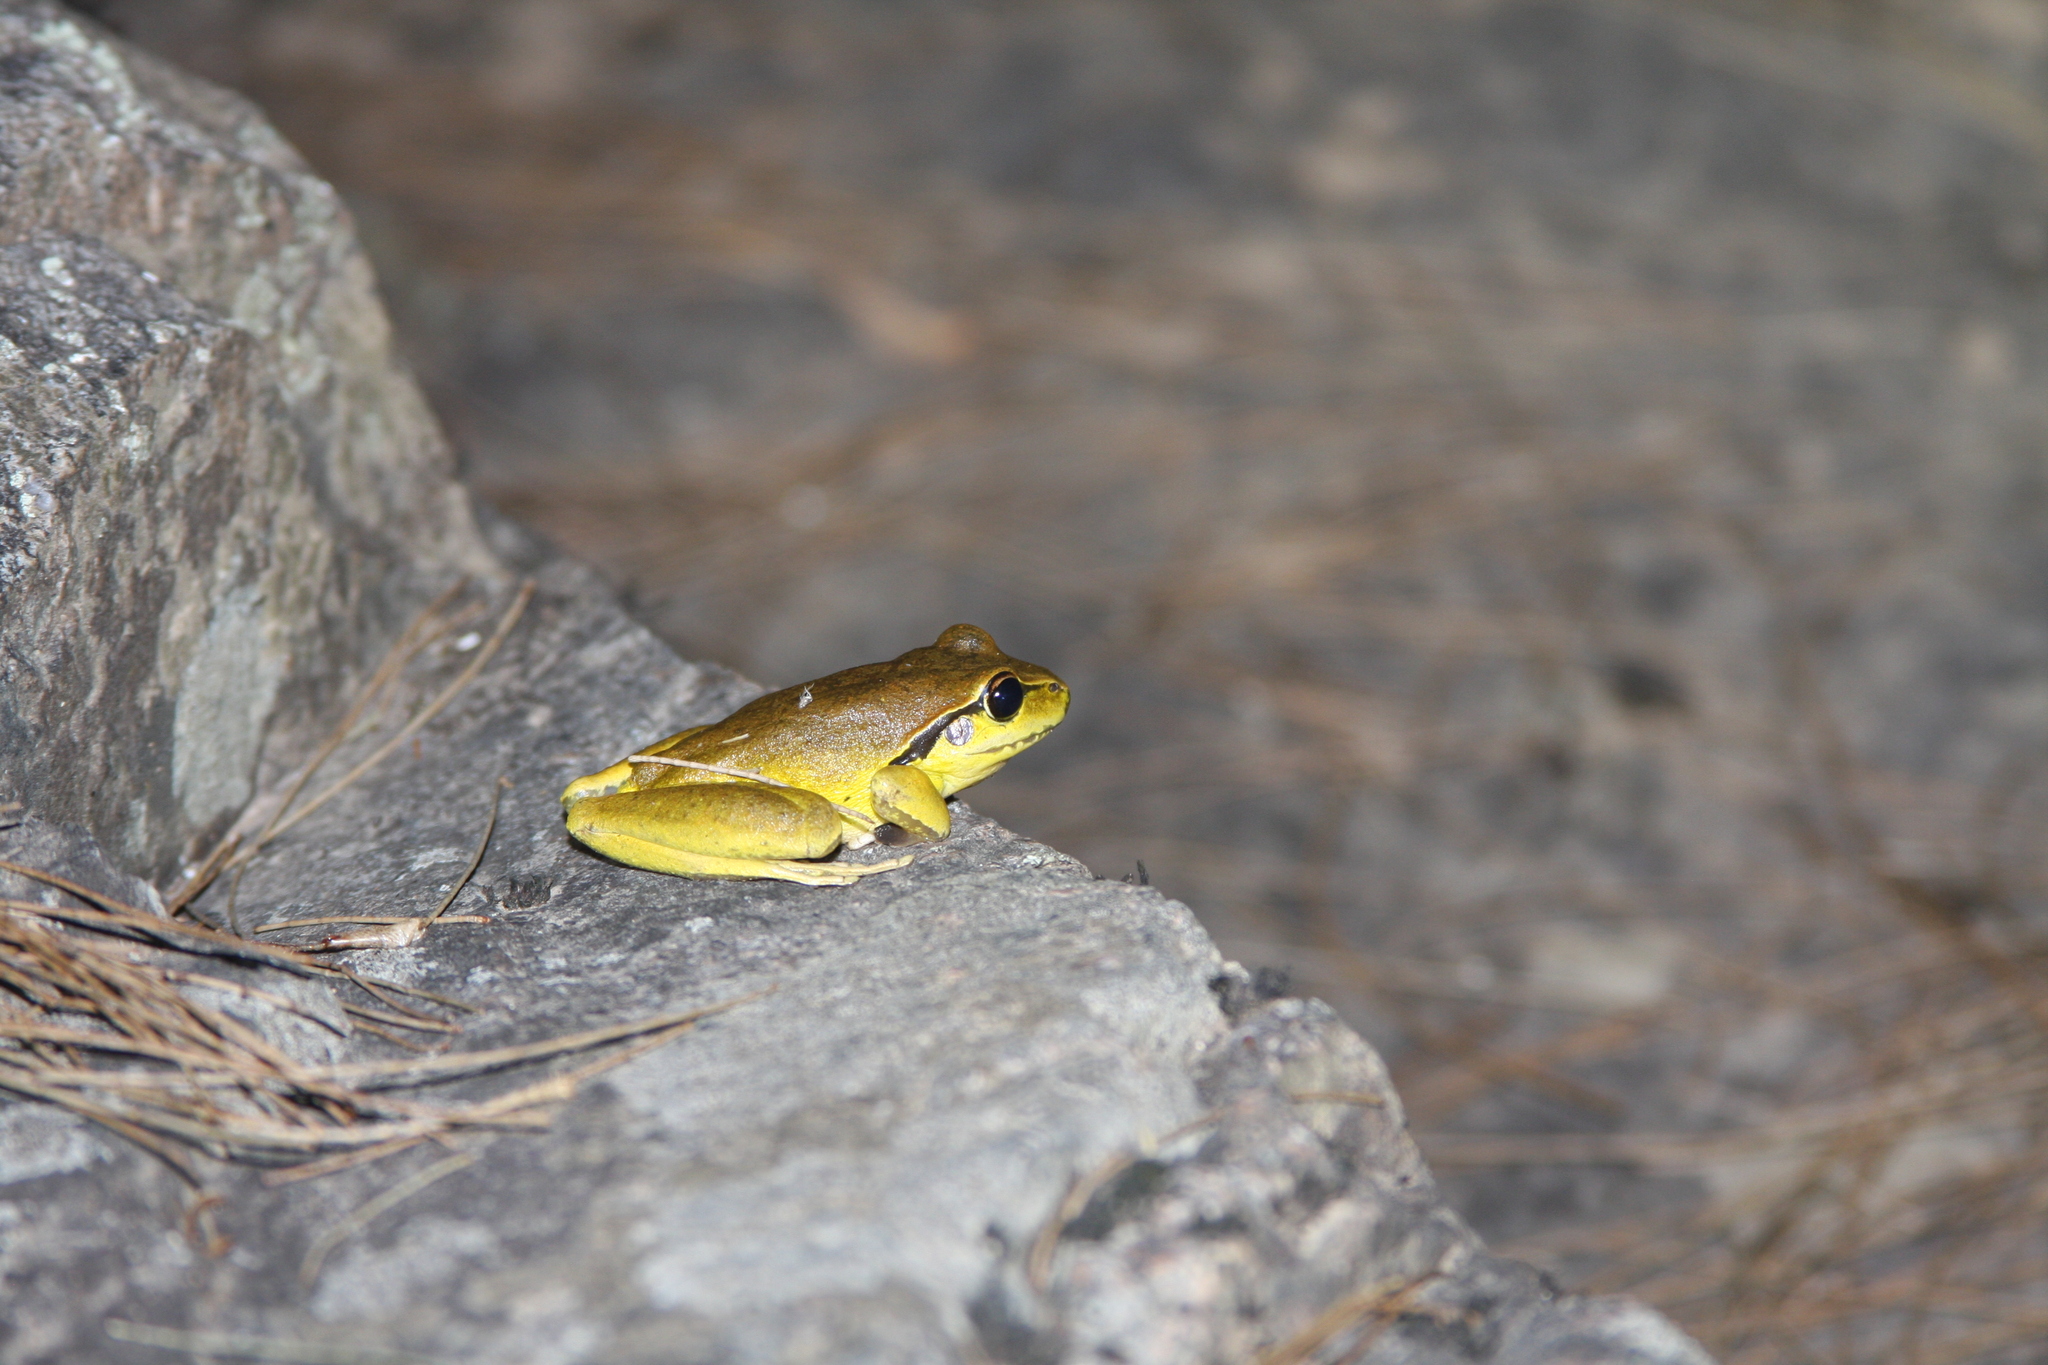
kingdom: Animalia
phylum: Chordata
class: Amphibia
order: Anura
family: Pelodryadidae
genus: Ranoidea
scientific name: Ranoidea lesueurii
